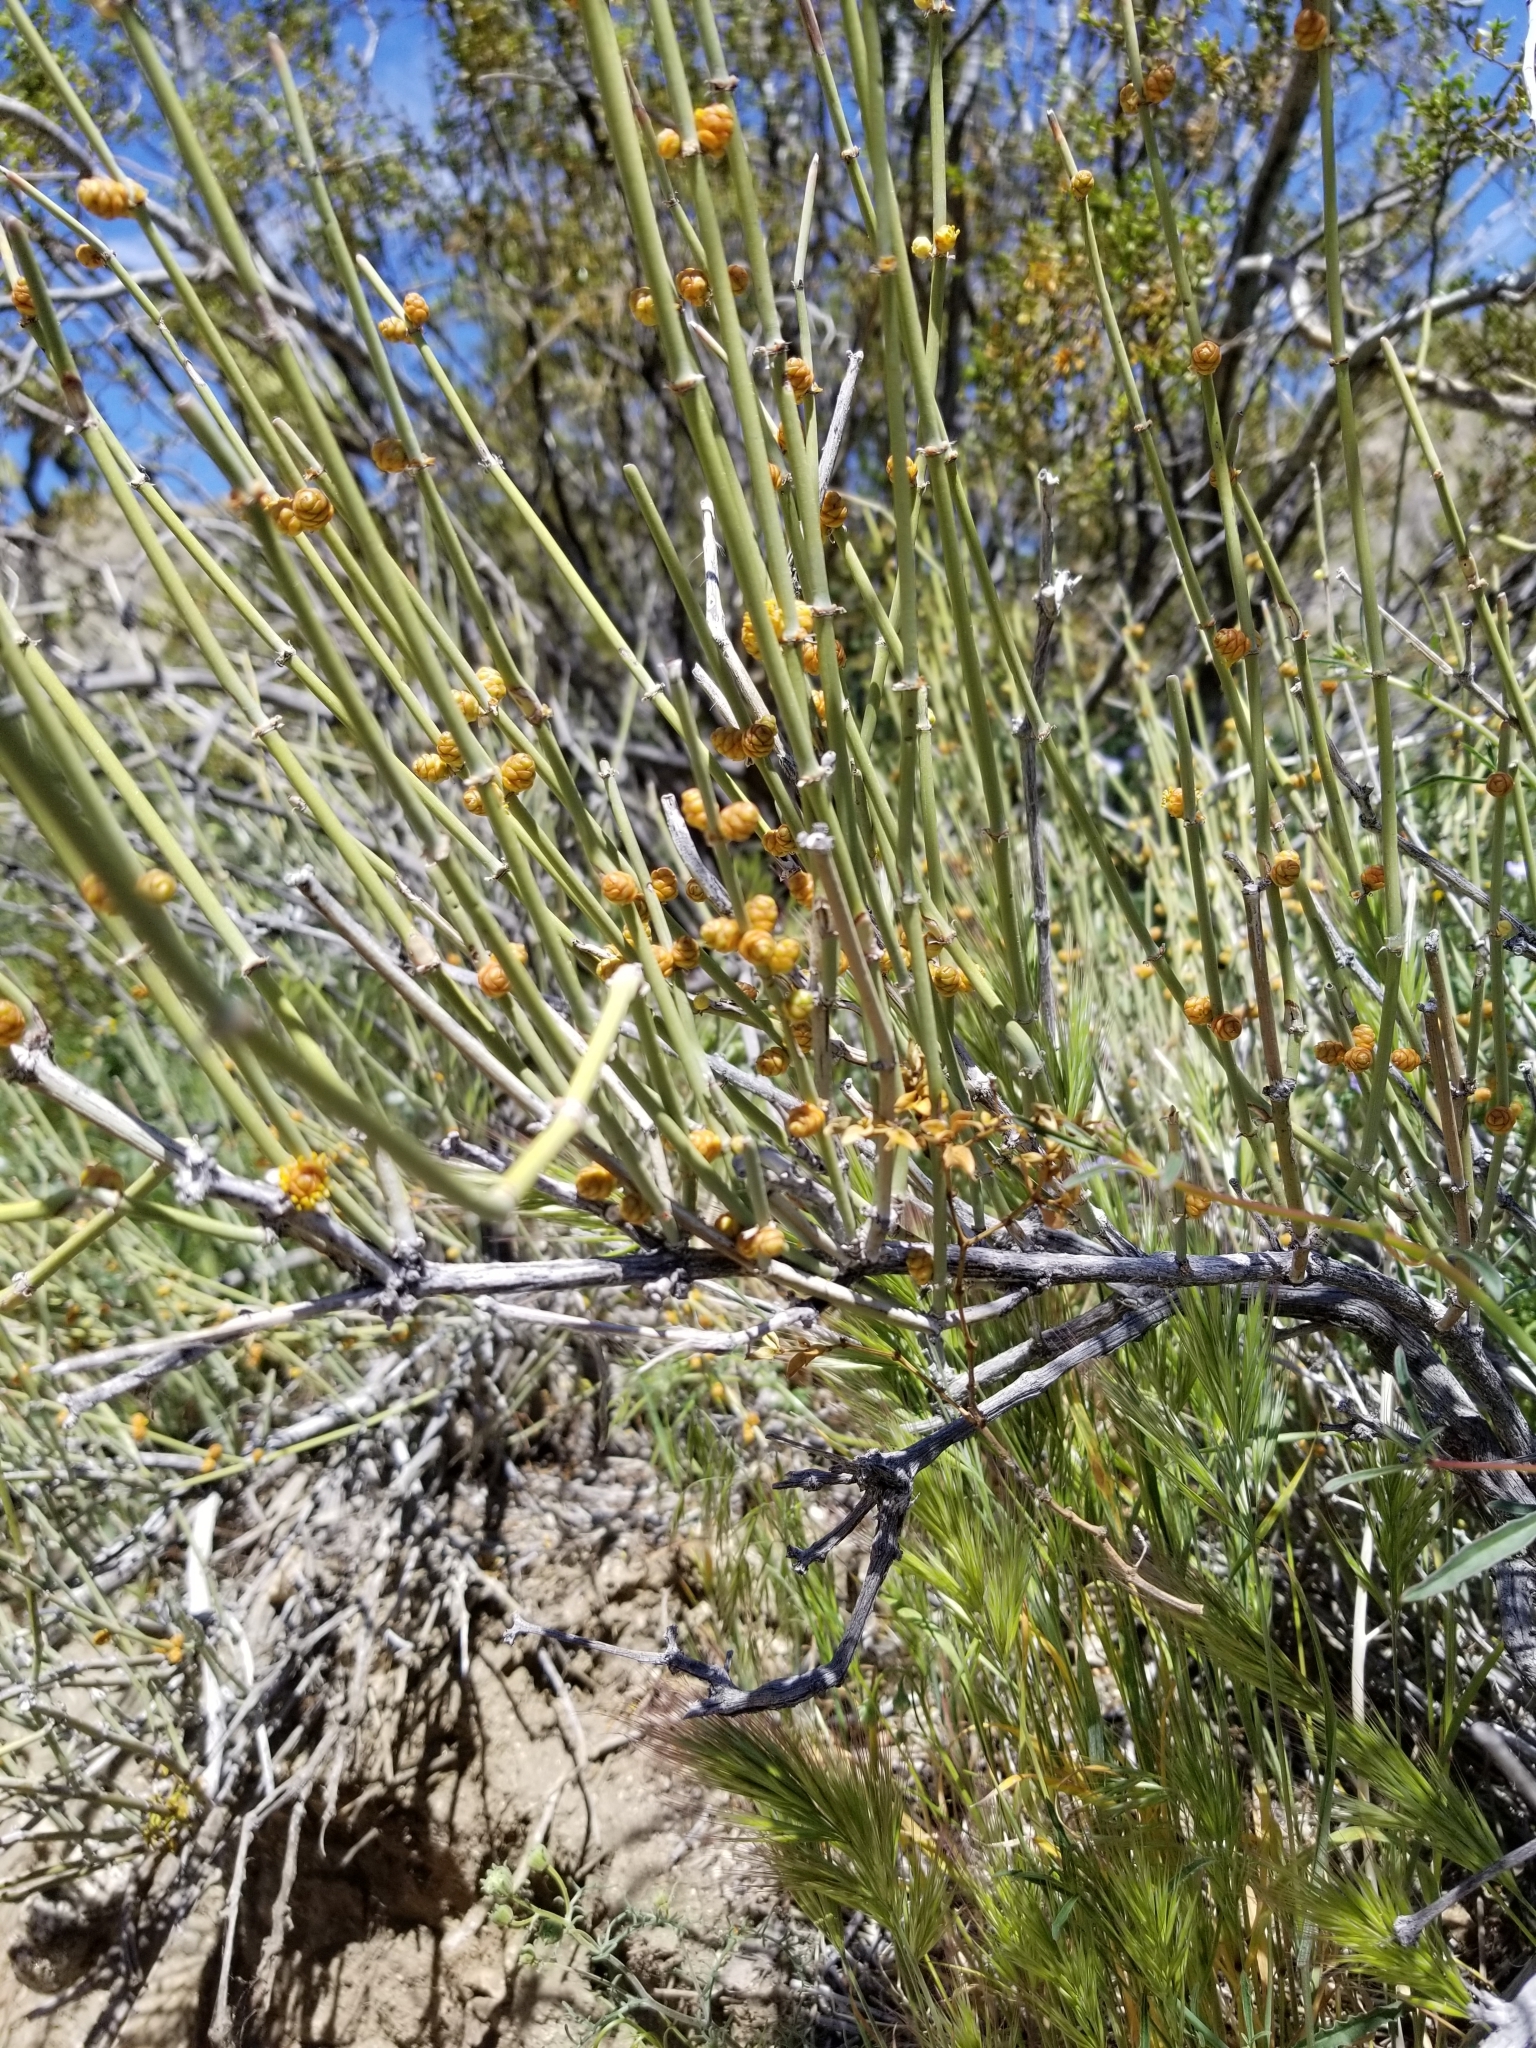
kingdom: Plantae
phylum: Tracheophyta
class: Gnetopsida
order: Ephedrales
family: Ephedraceae
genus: Ephedra
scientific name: Ephedra californica
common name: California ephedra
